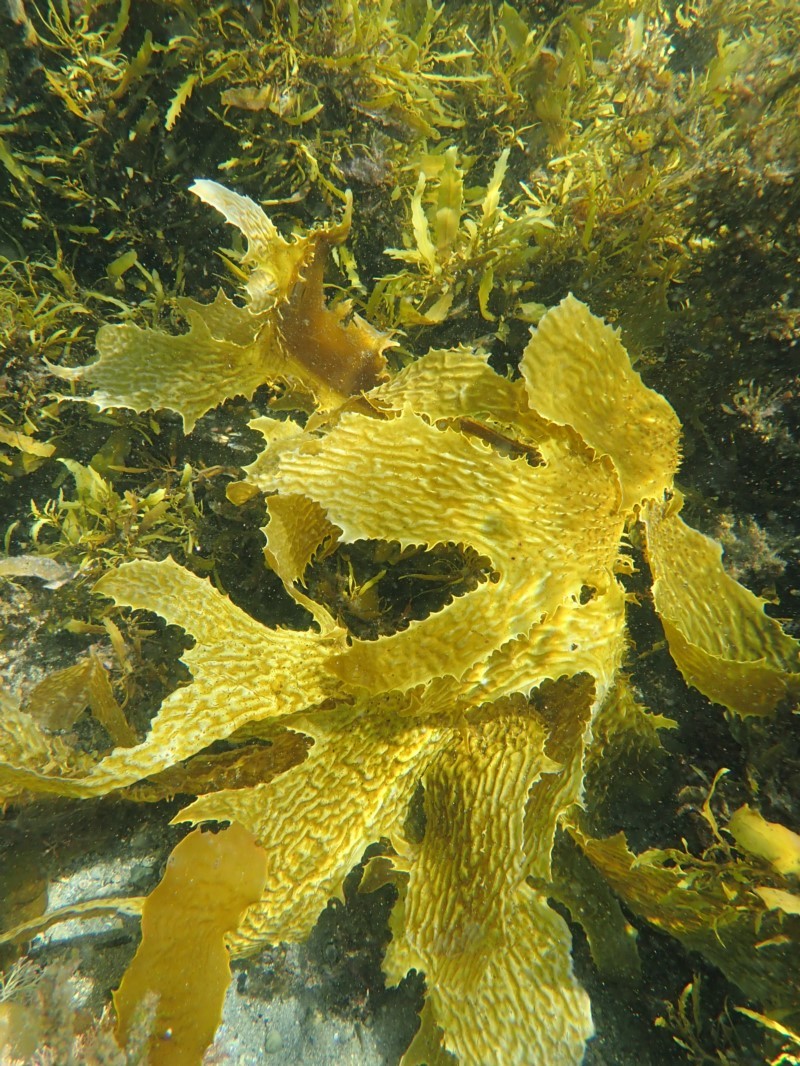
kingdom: Chromista
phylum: Ochrophyta
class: Phaeophyceae
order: Laminariales
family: Lessoniaceae
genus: Ecklonia
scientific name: Ecklonia radiata
